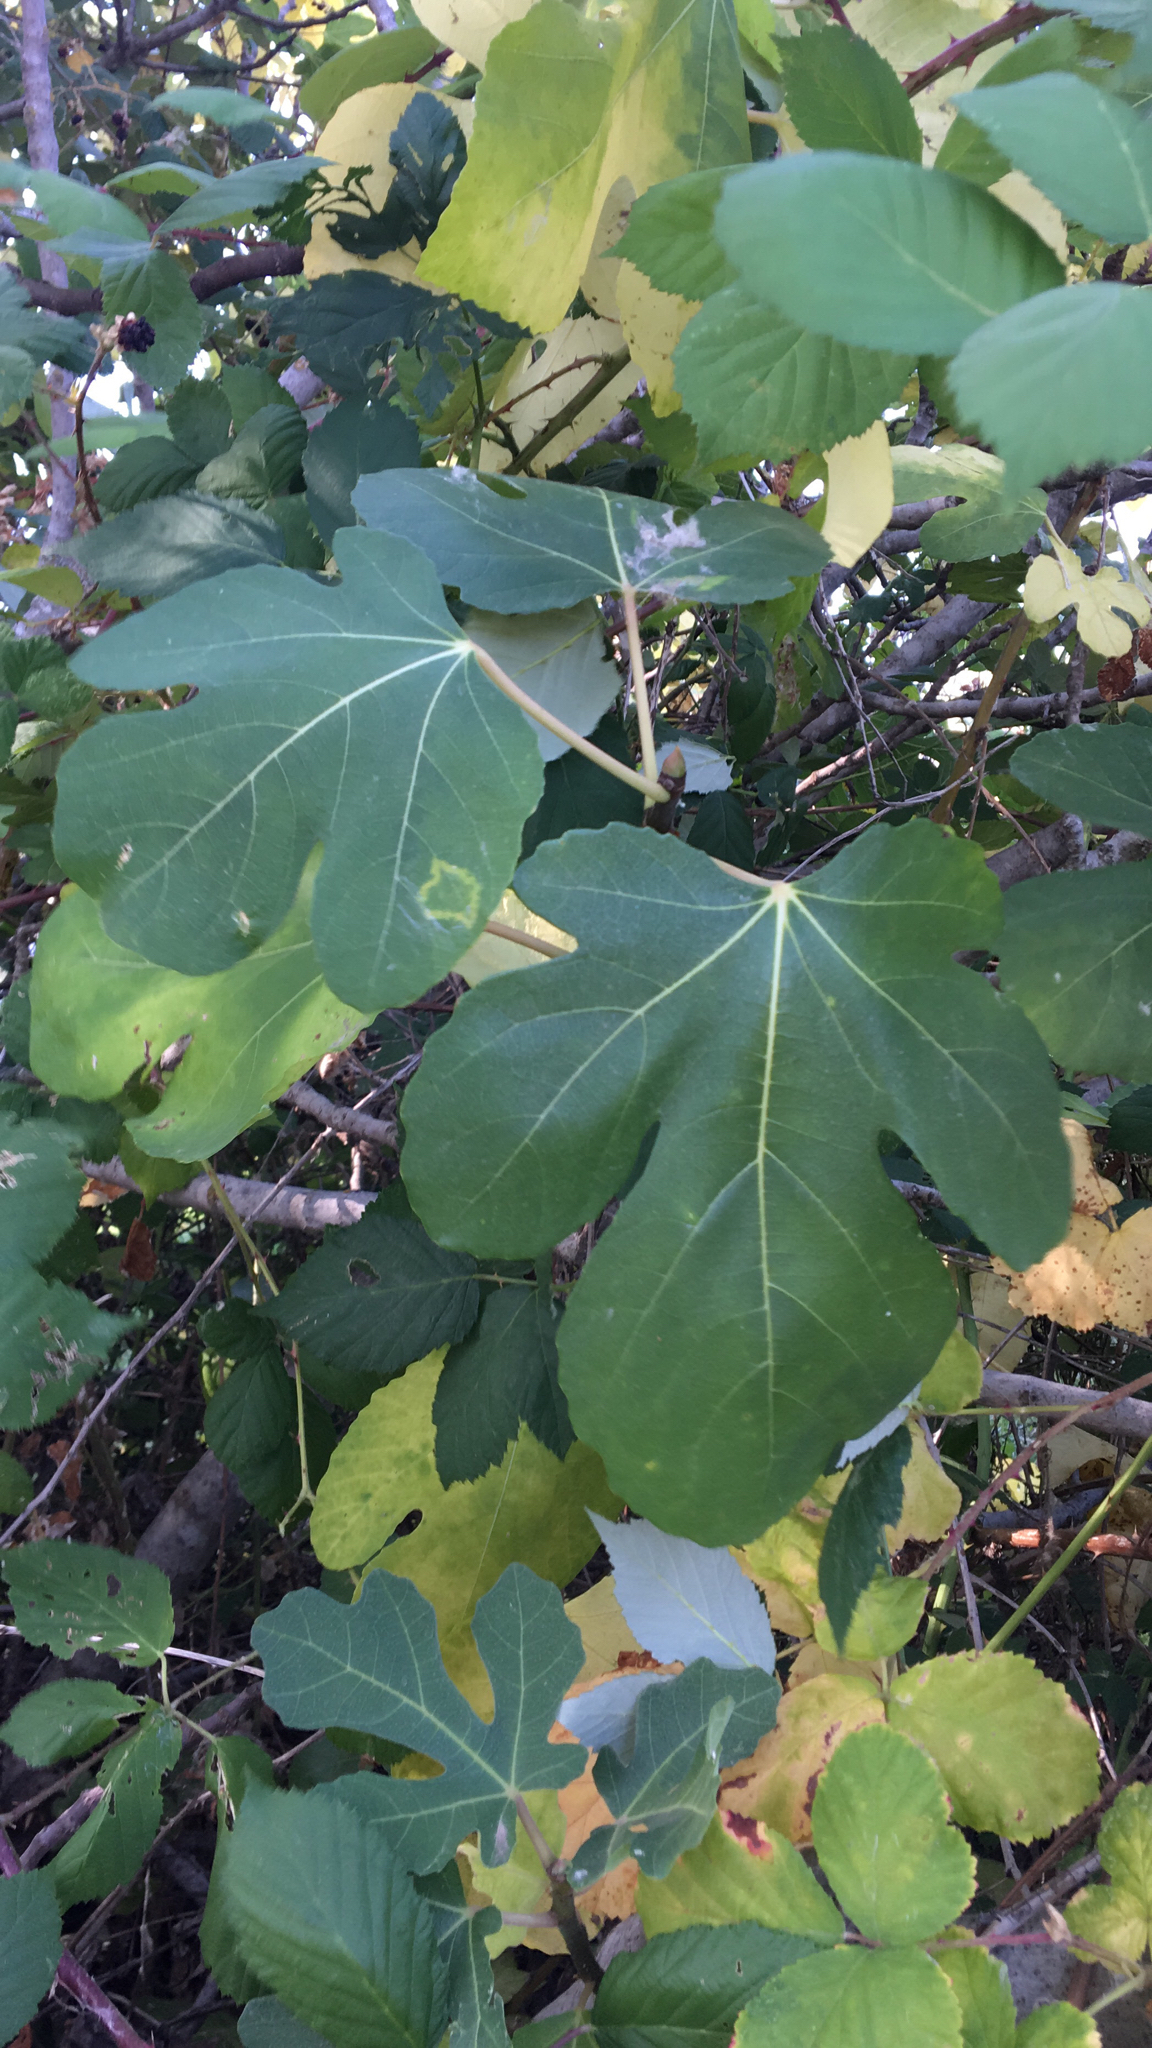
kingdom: Plantae
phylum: Tracheophyta
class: Magnoliopsida
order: Rosales
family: Moraceae
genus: Ficus
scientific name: Ficus carica
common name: Fig
